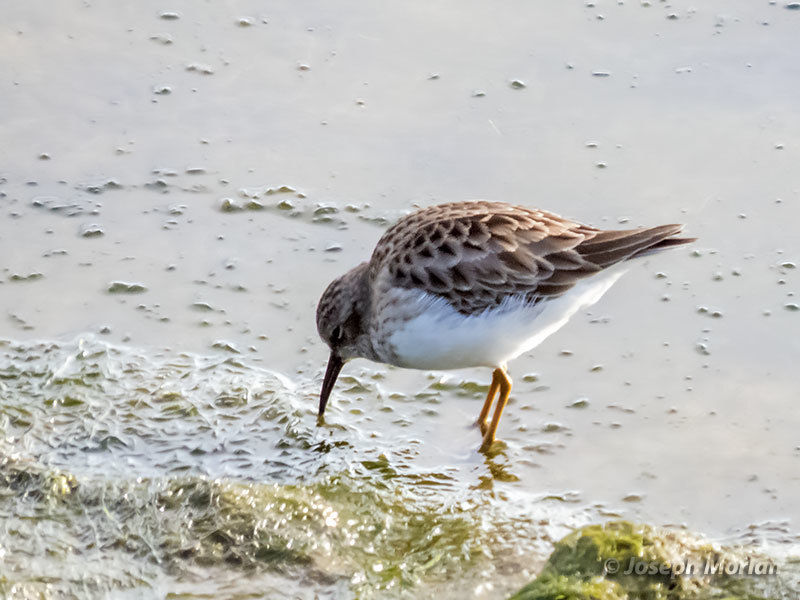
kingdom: Animalia
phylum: Chordata
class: Aves
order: Charadriiformes
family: Scolopacidae
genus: Calidris
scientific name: Calidris minutilla
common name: Least sandpiper
